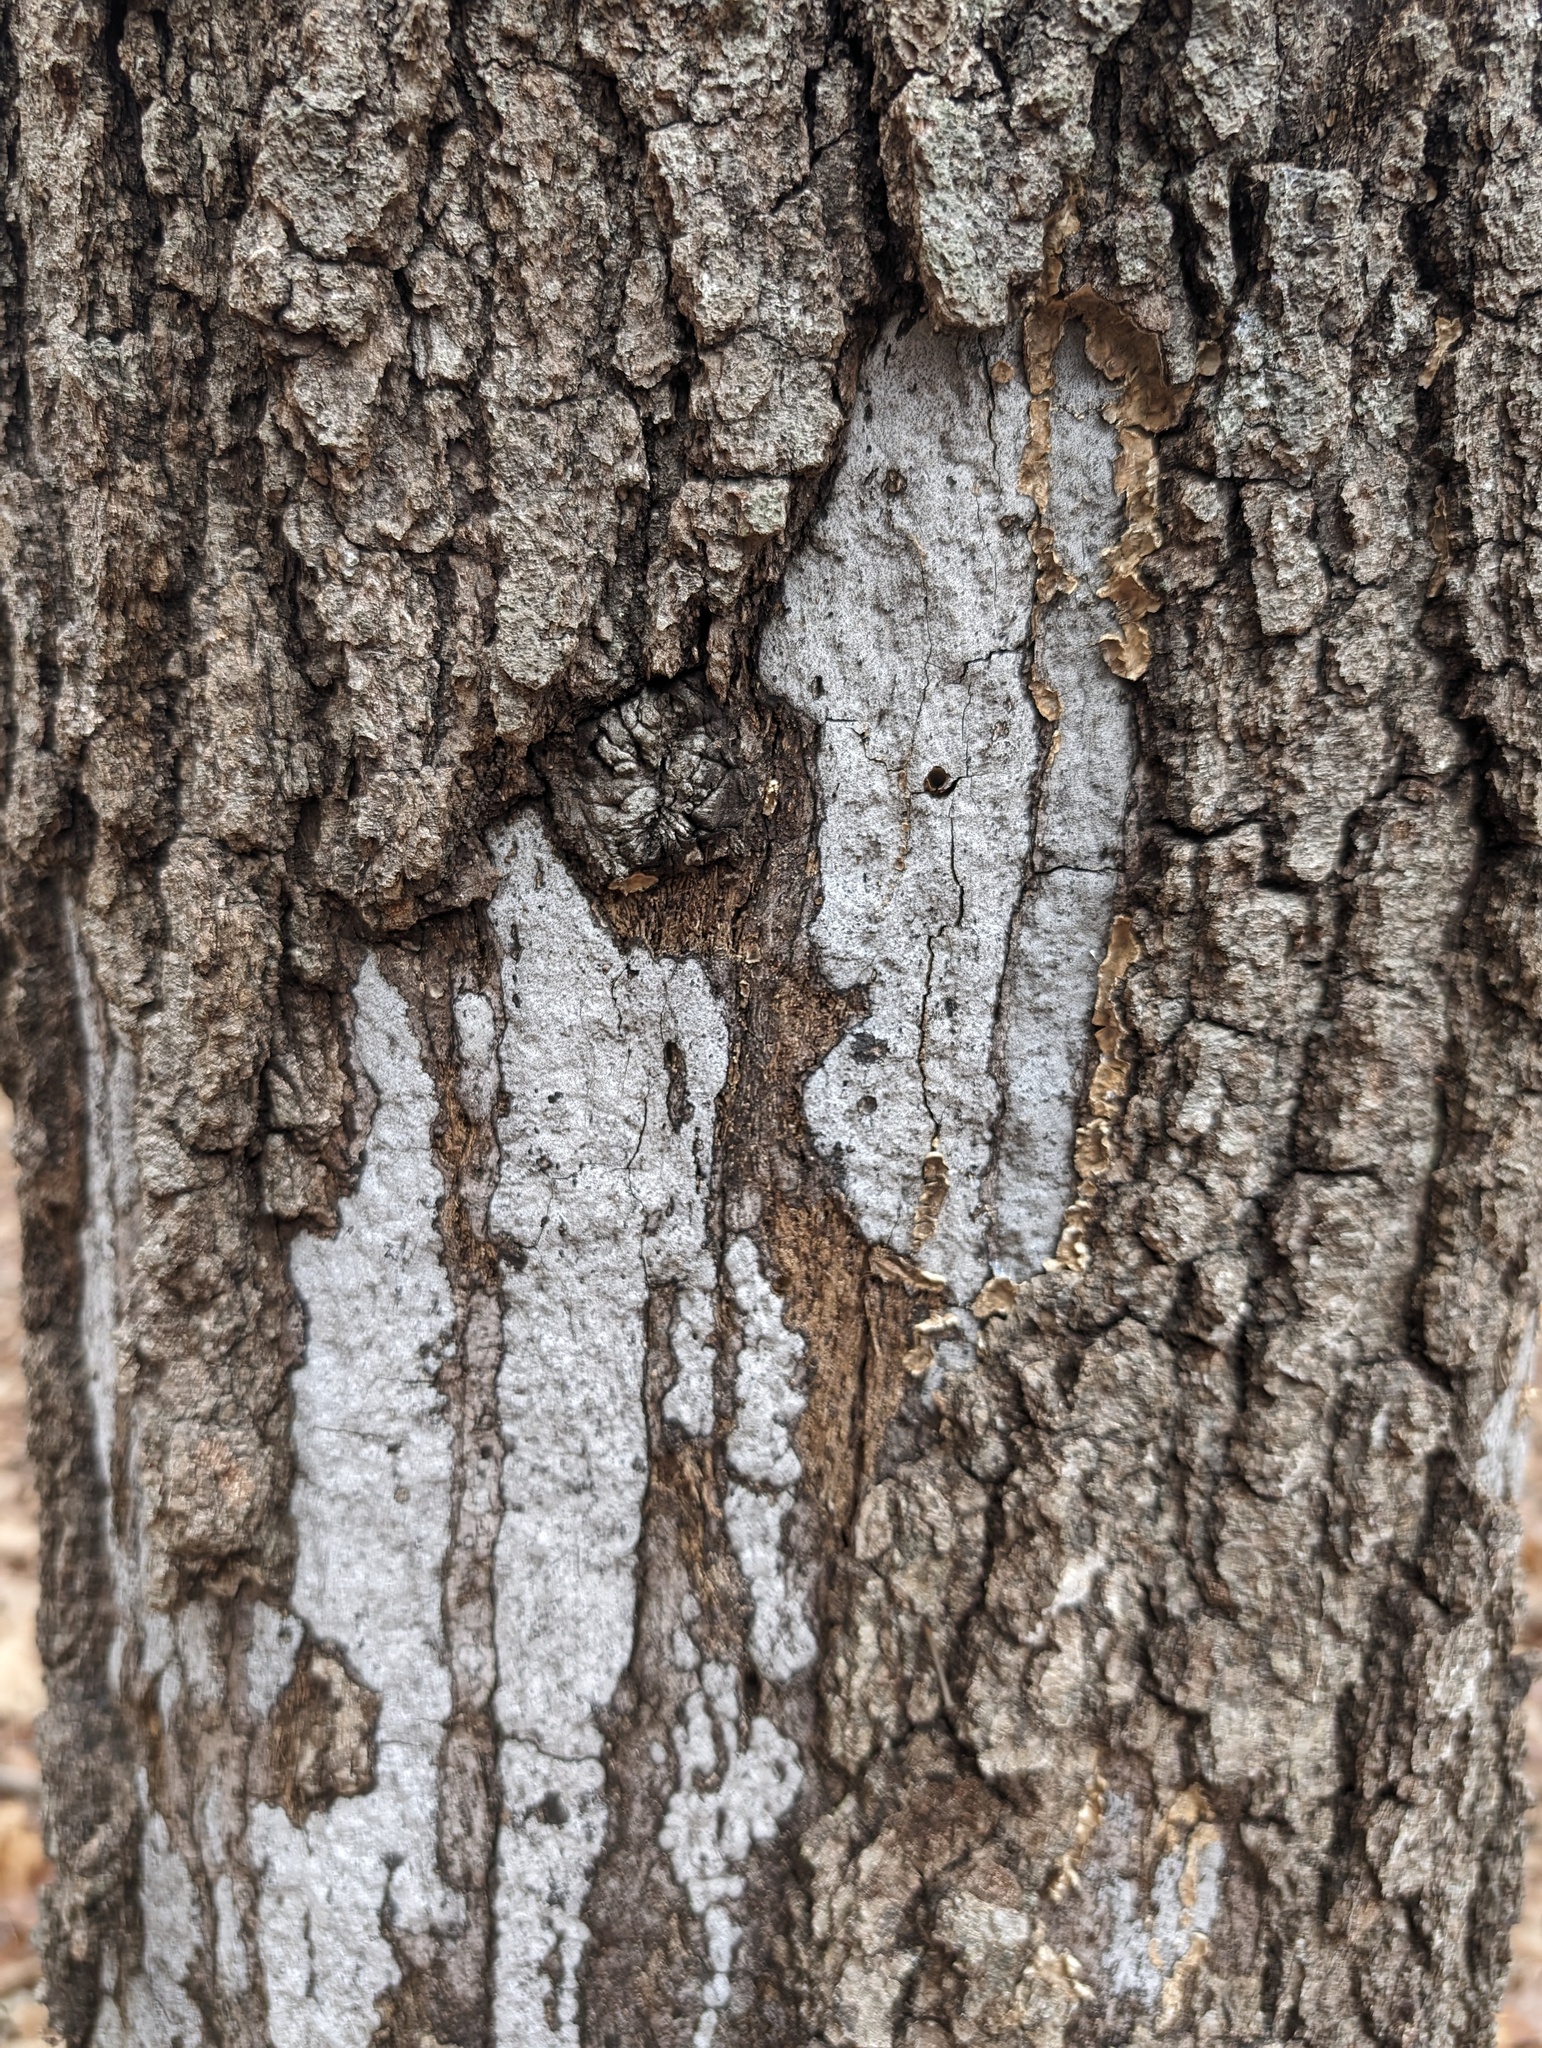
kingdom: Fungi
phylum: Ascomycota
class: Sordariomycetes
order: Xylariales
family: Graphostromataceae
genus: Biscogniauxia
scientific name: Biscogniauxia atropunctata
